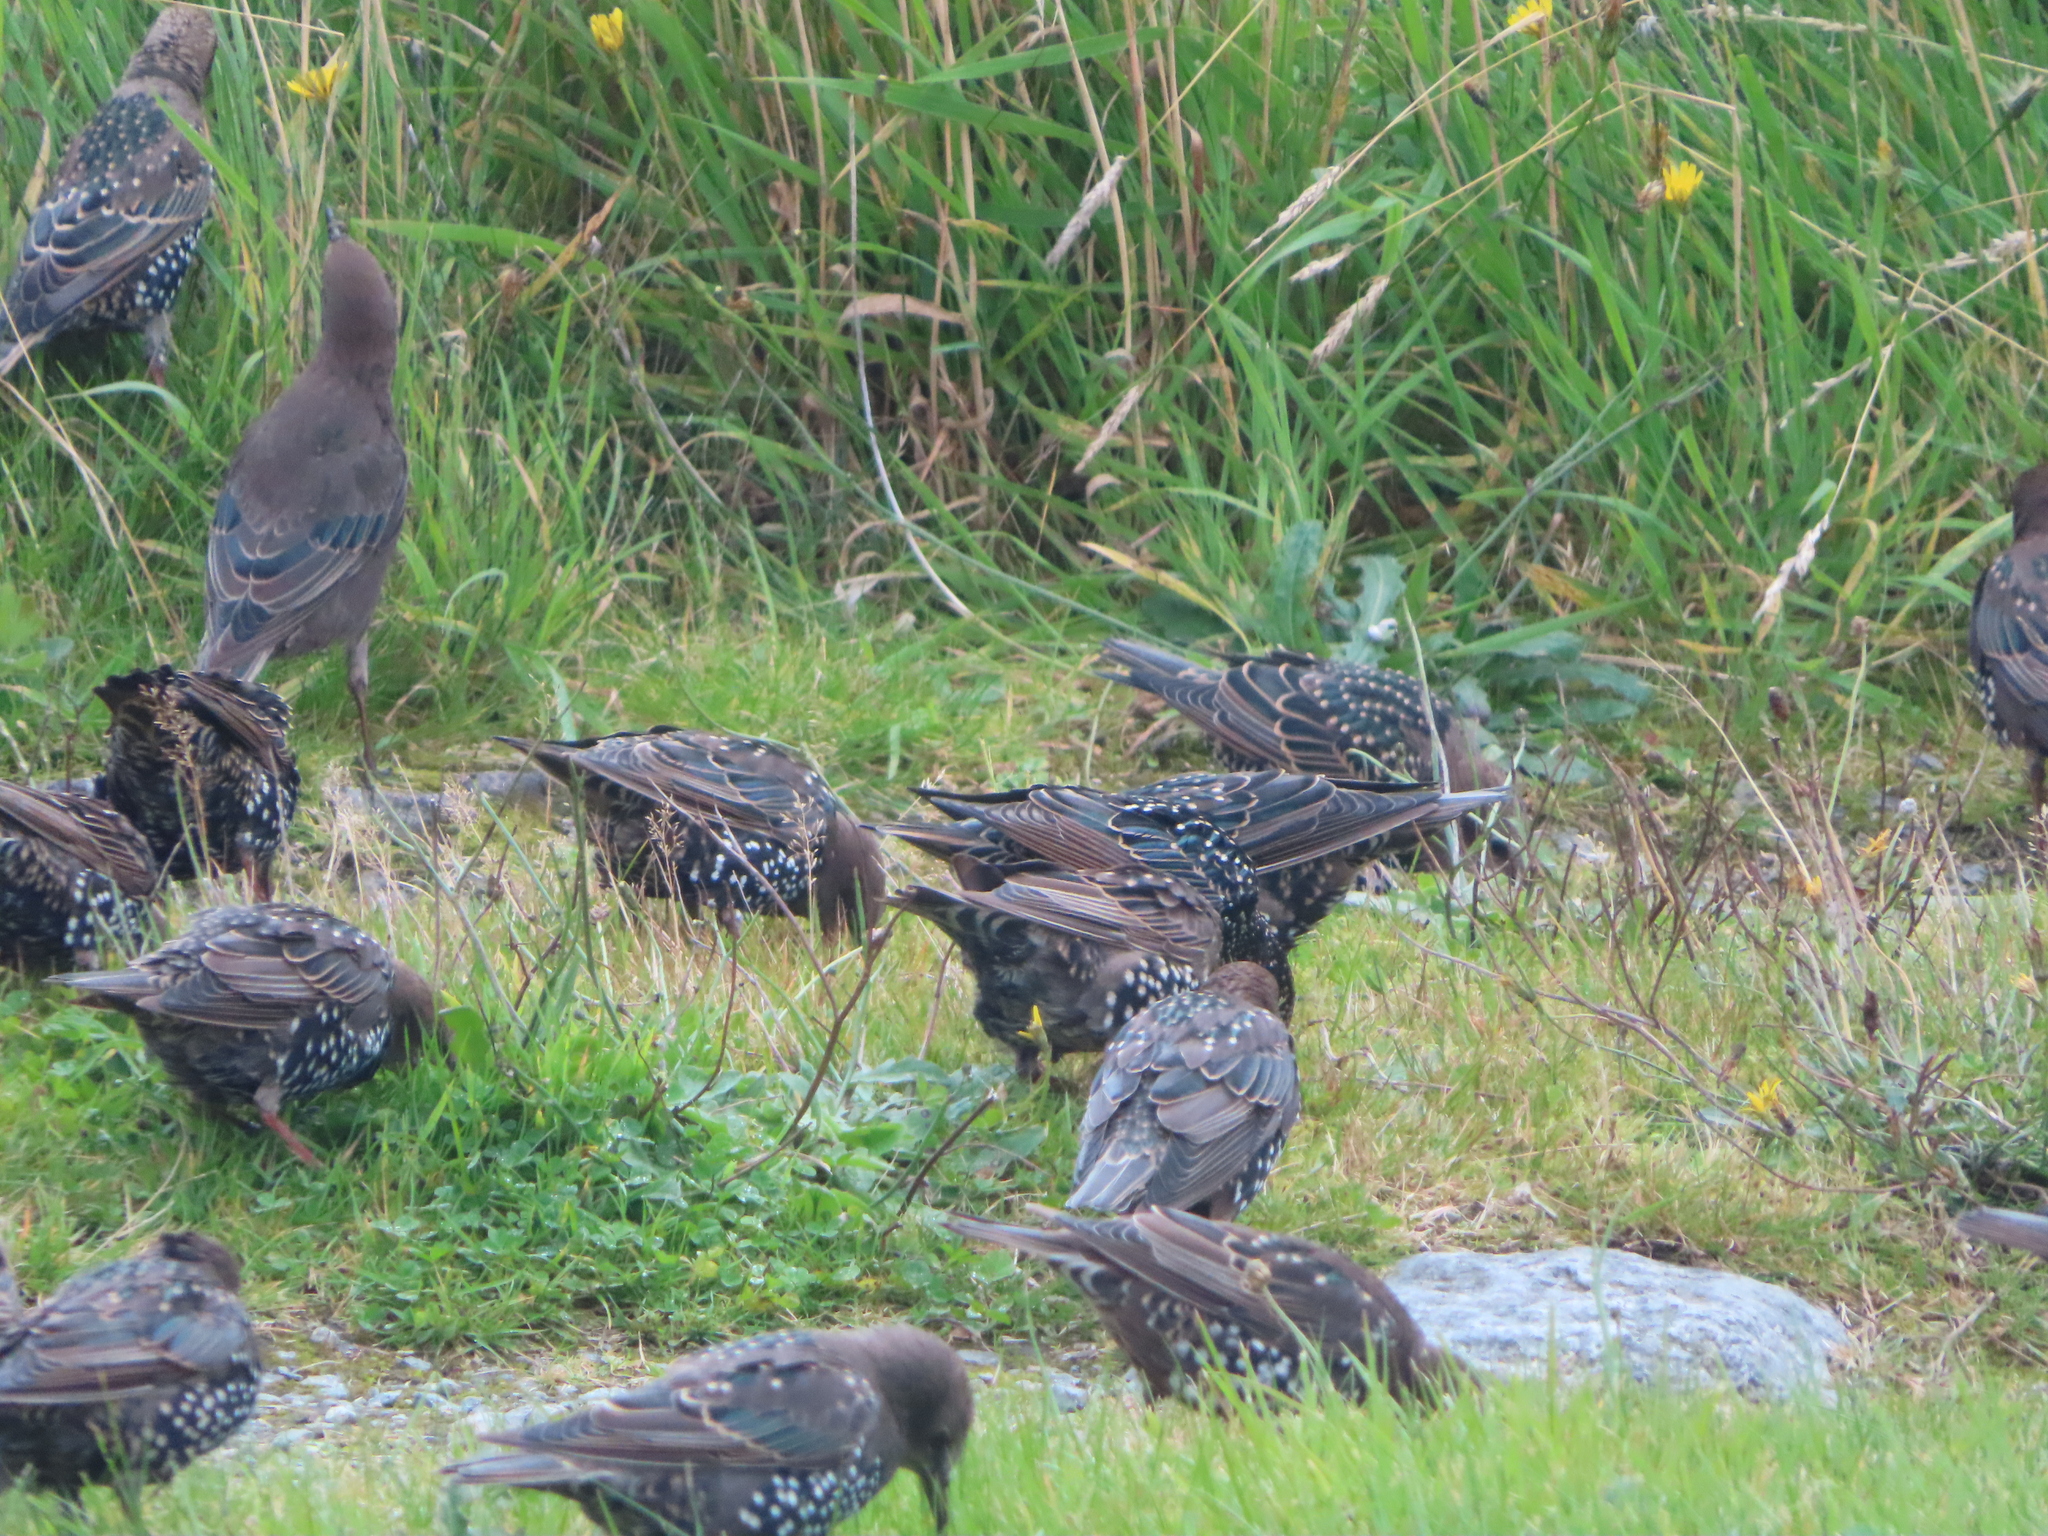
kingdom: Animalia
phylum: Chordata
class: Aves
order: Passeriformes
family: Sturnidae
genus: Sturnus
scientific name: Sturnus vulgaris
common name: Common starling
